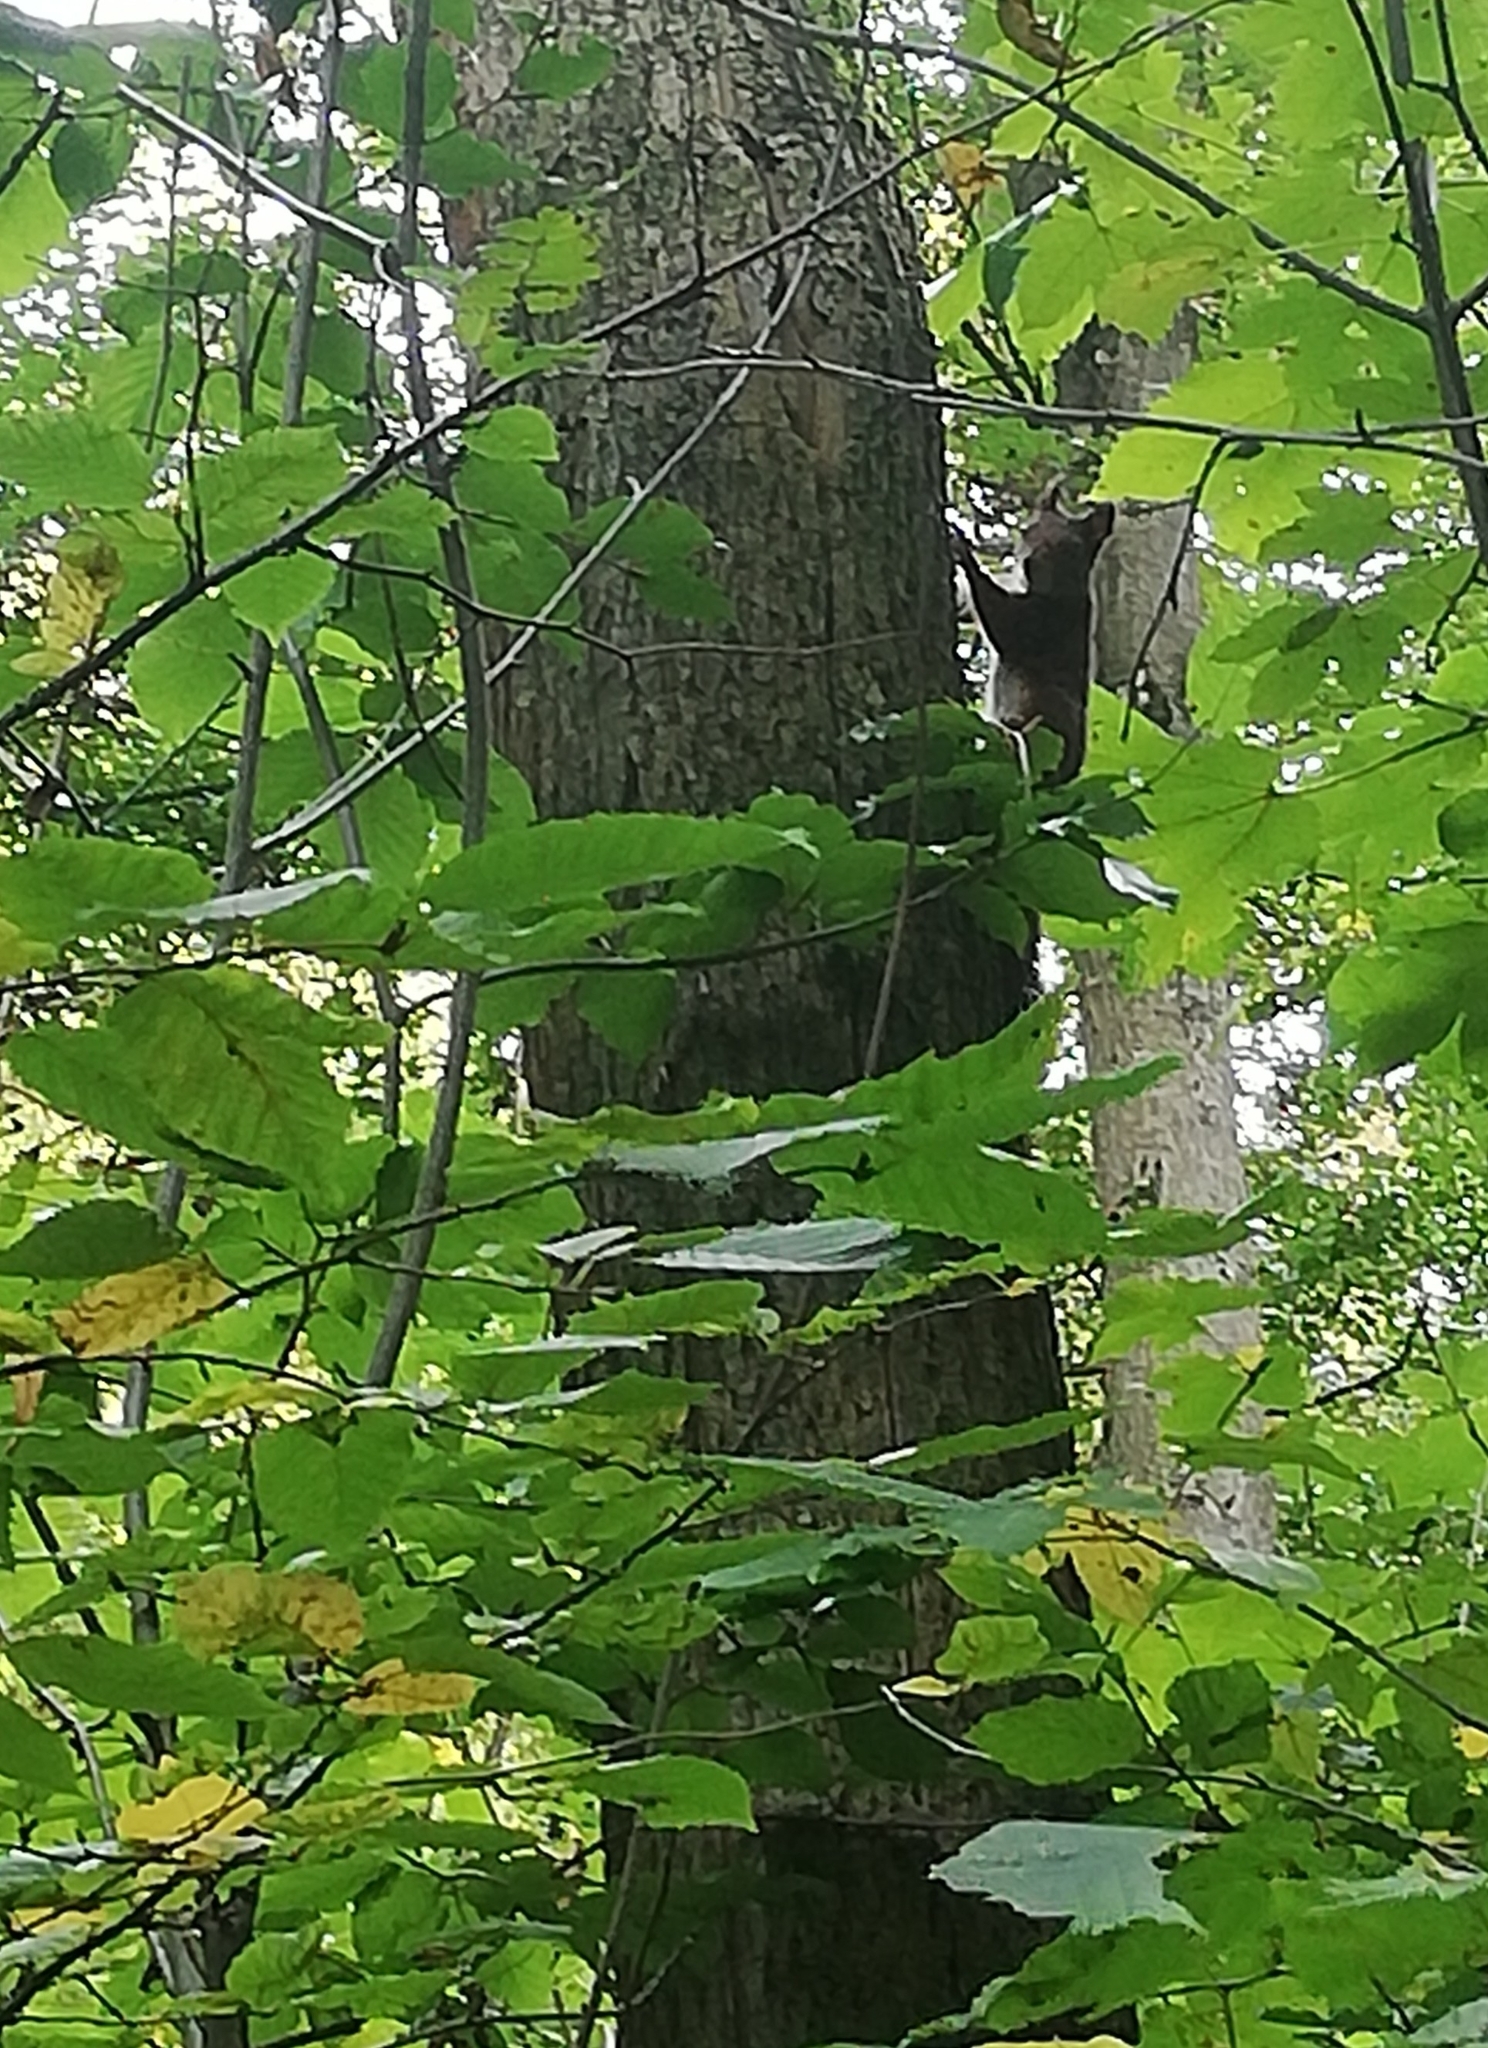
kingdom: Animalia
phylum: Chordata
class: Mammalia
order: Rodentia
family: Sciuridae
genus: Sciurus
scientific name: Sciurus vulgaris
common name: Eurasian red squirrel
